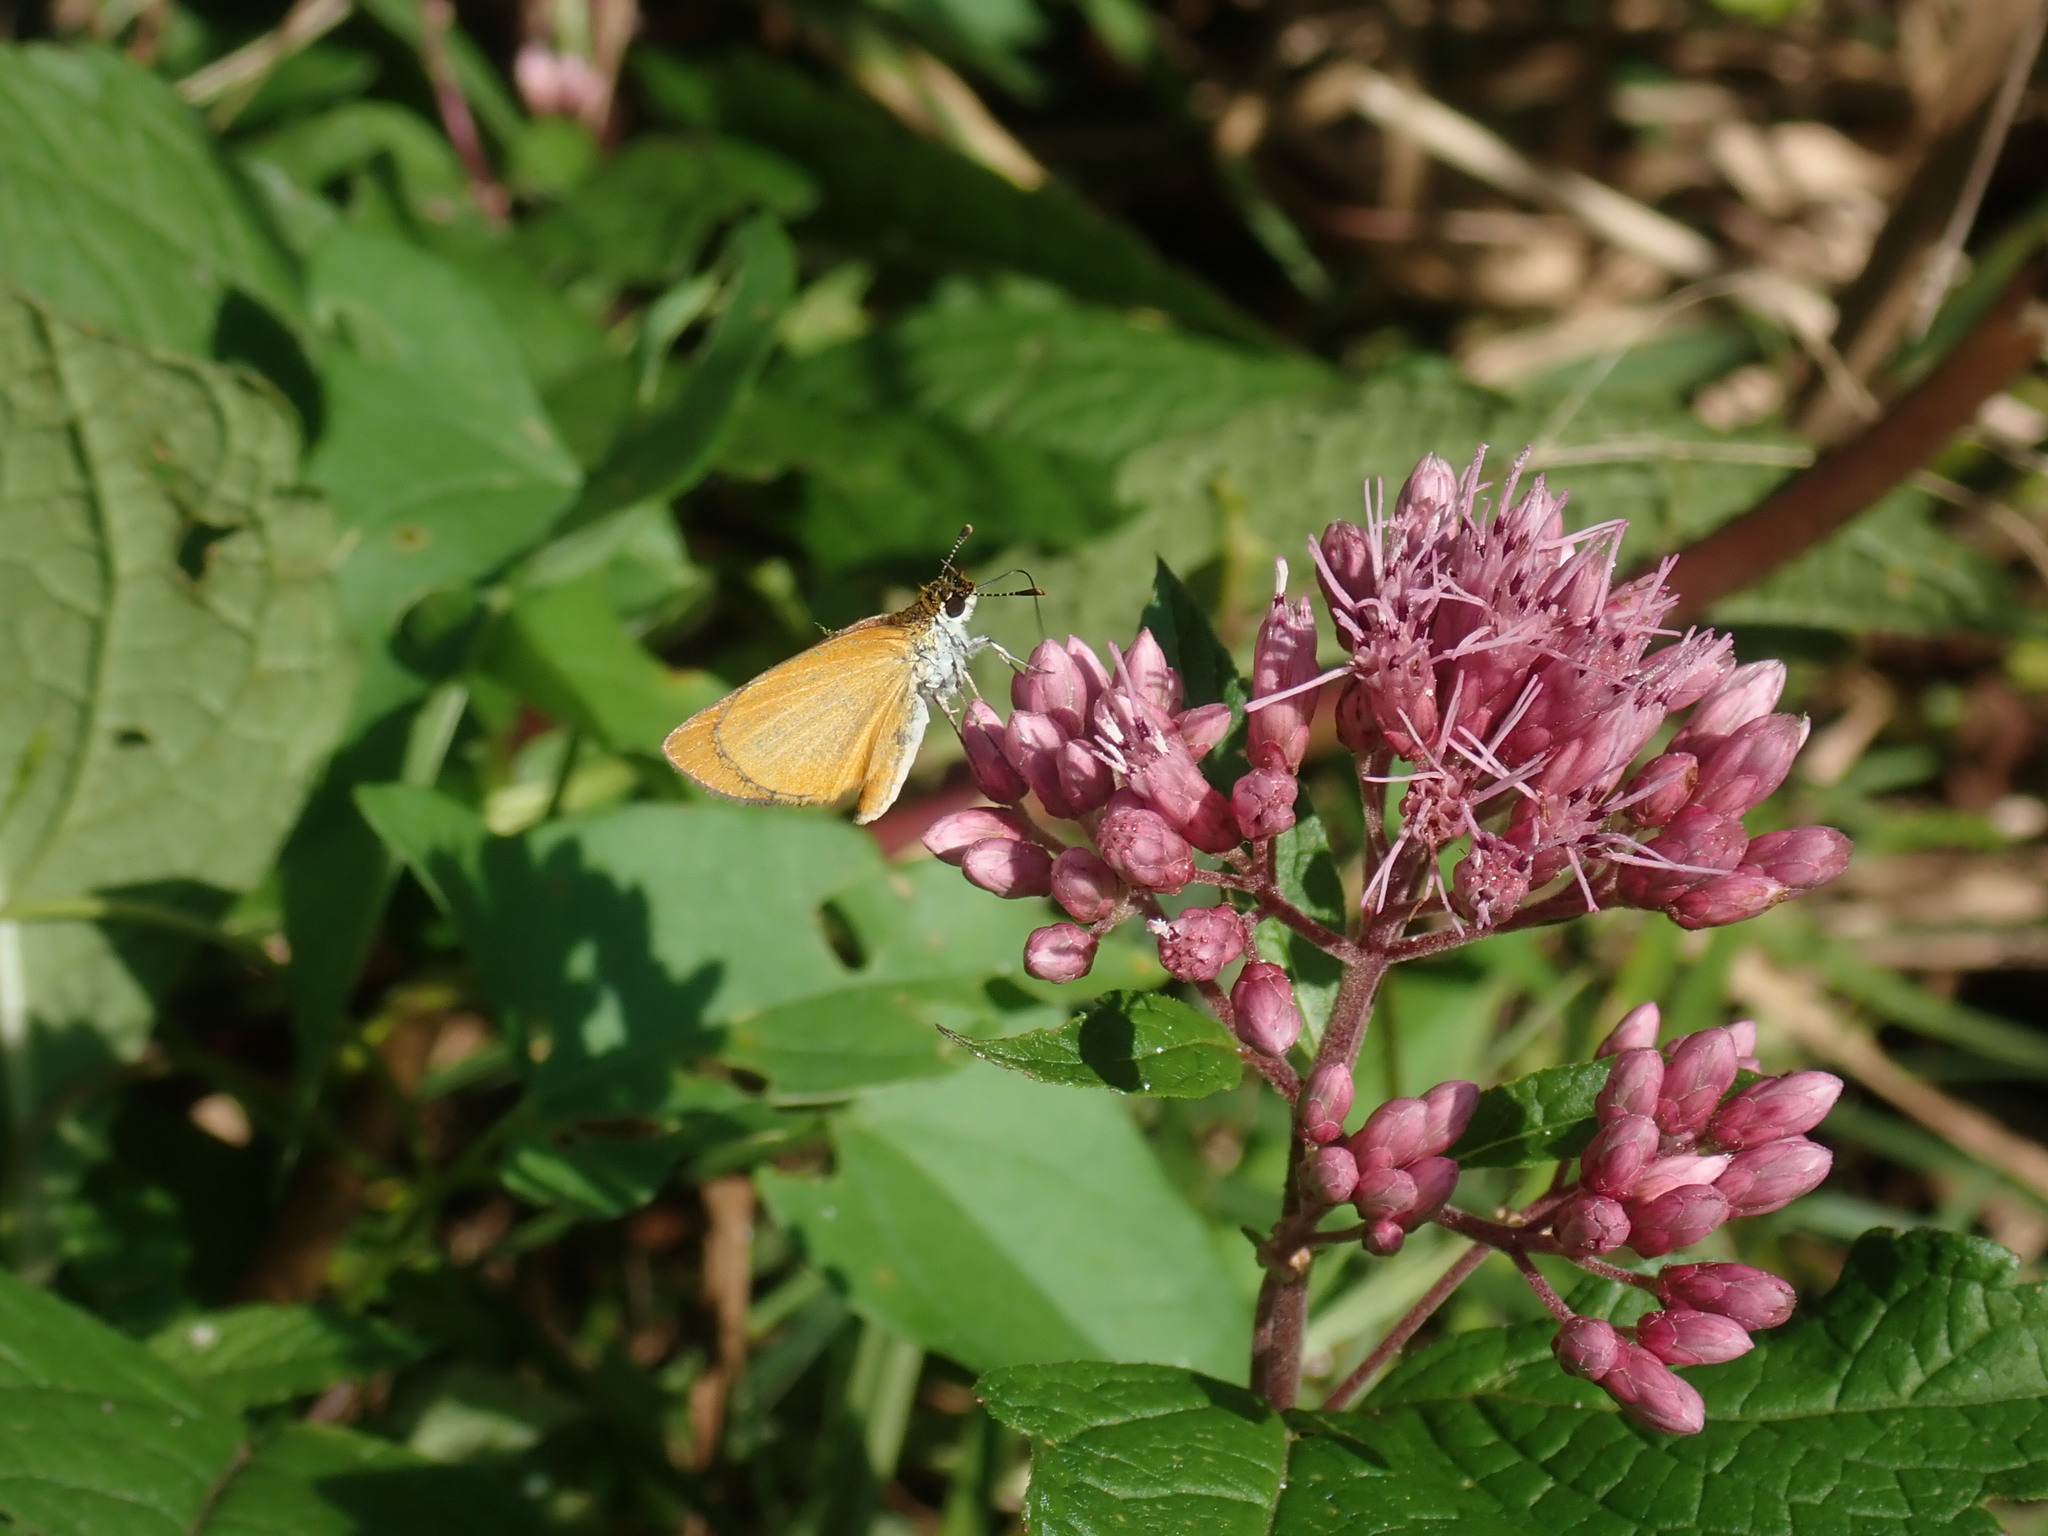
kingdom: Animalia
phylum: Arthropoda
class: Insecta
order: Lepidoptera
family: Hesperiidae
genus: Ancyloxypha
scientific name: Ancyloxypha numitor
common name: Least skipper
